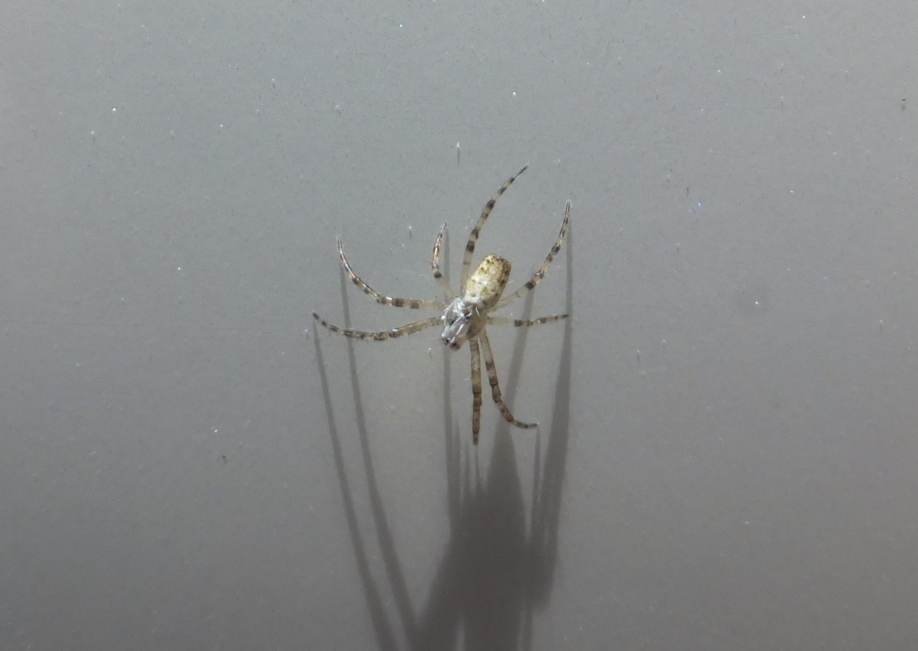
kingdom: Animalia
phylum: Arthropoda
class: Arachnida
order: Araneae
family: Araneidae
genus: Argiope
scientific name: Argiope bruennichi
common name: Wasp spider
